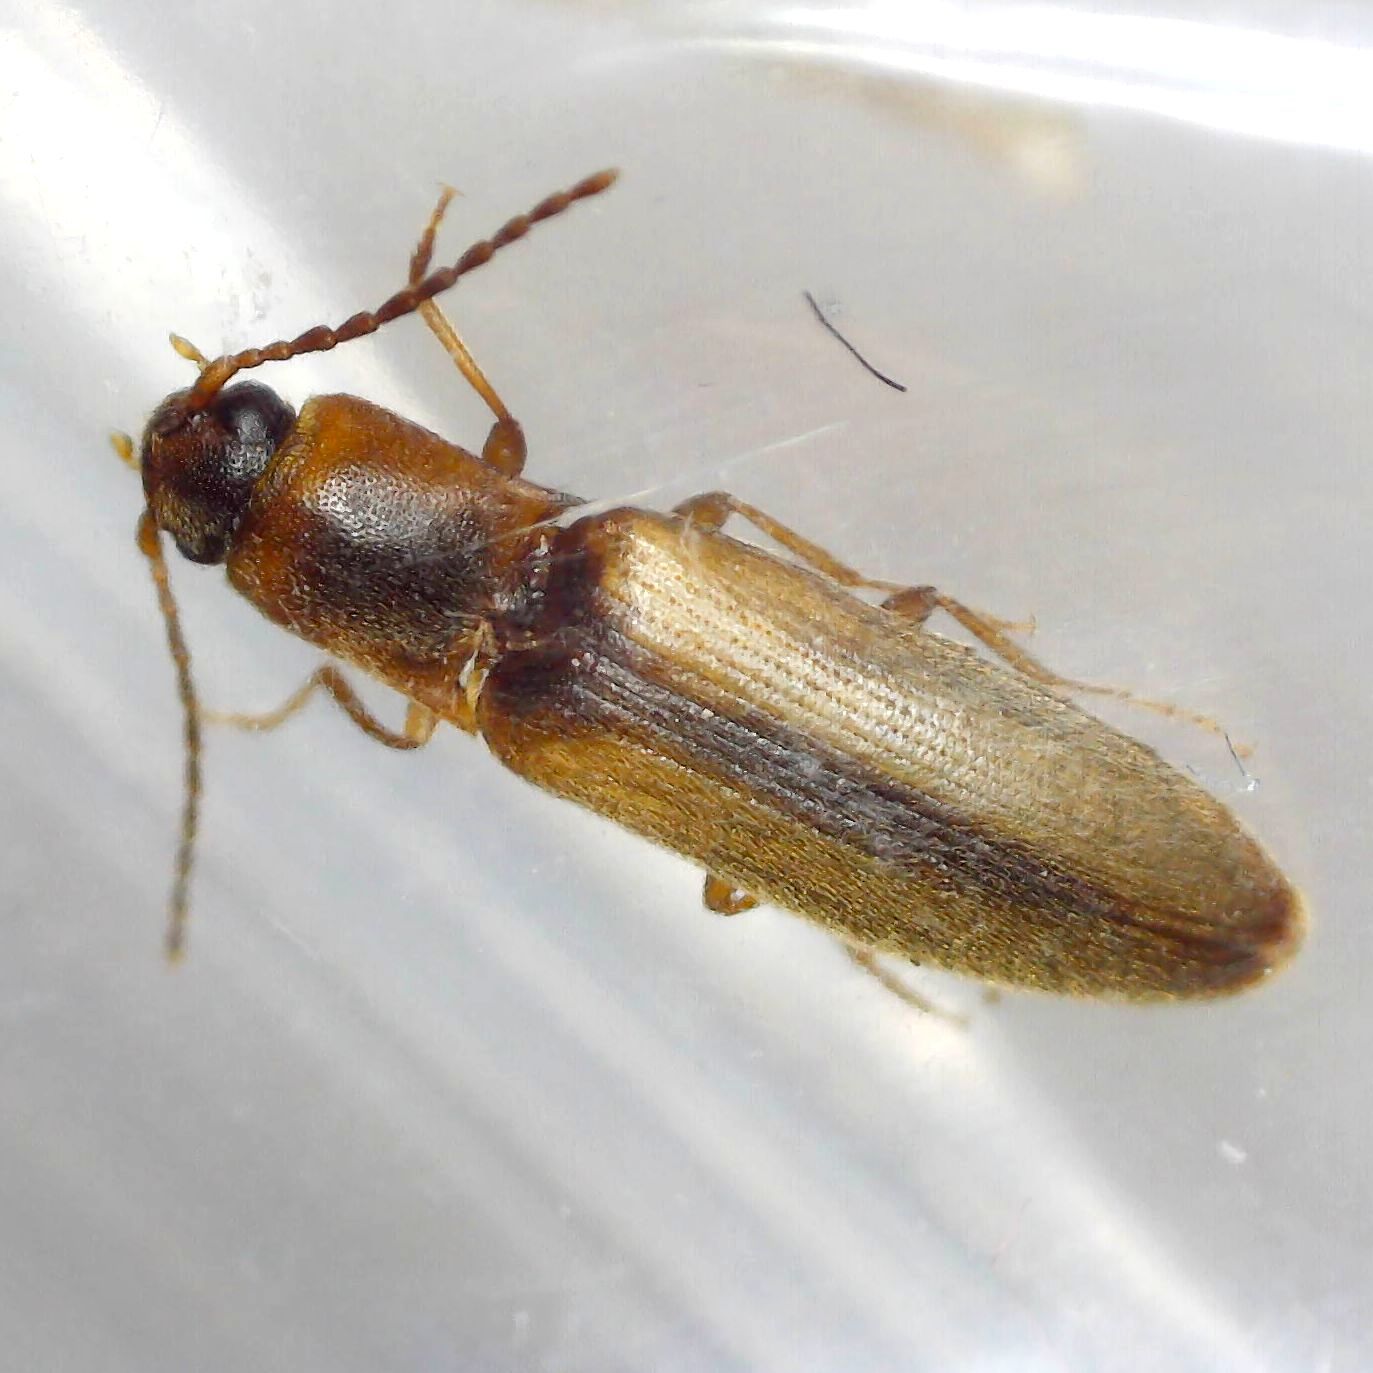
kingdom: Animalia
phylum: Arthropoda
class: Insecta
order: Coleoptera
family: Elateridae
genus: Dalopius
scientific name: Dalopius marginatus
